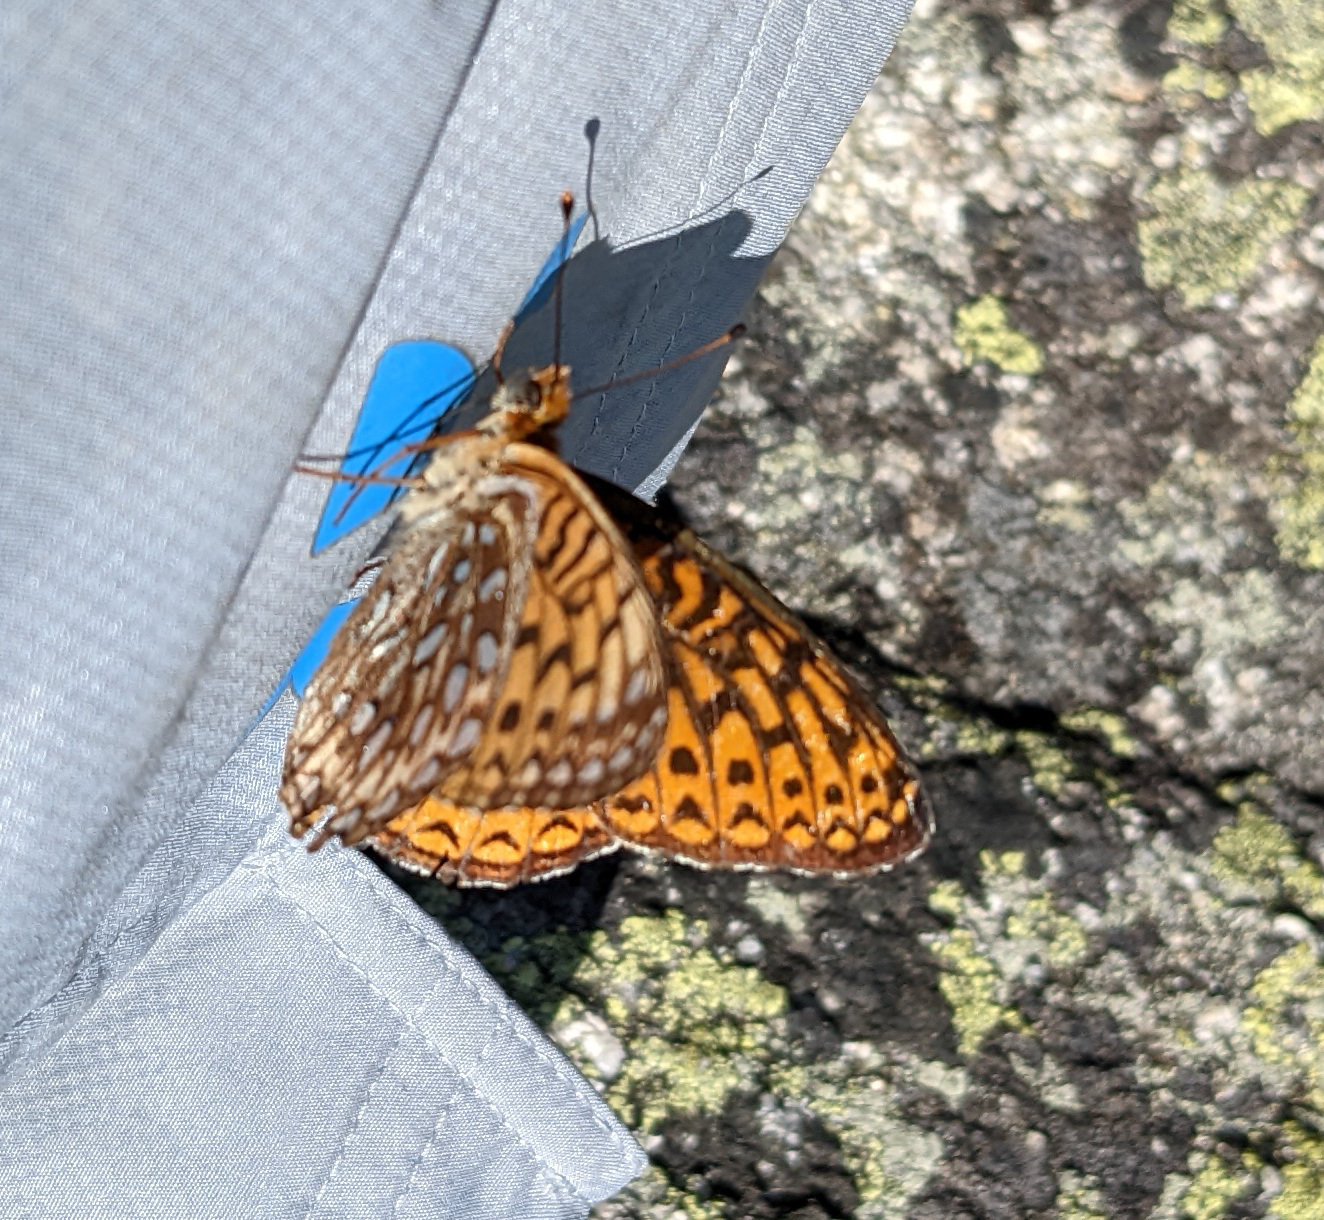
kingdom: Animalia
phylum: Arthropoda
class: Insecta
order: Lepidoptera
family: Nymphalidae
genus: Speyeria
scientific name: Speyeria atlantis
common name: Atlantis fritillary
